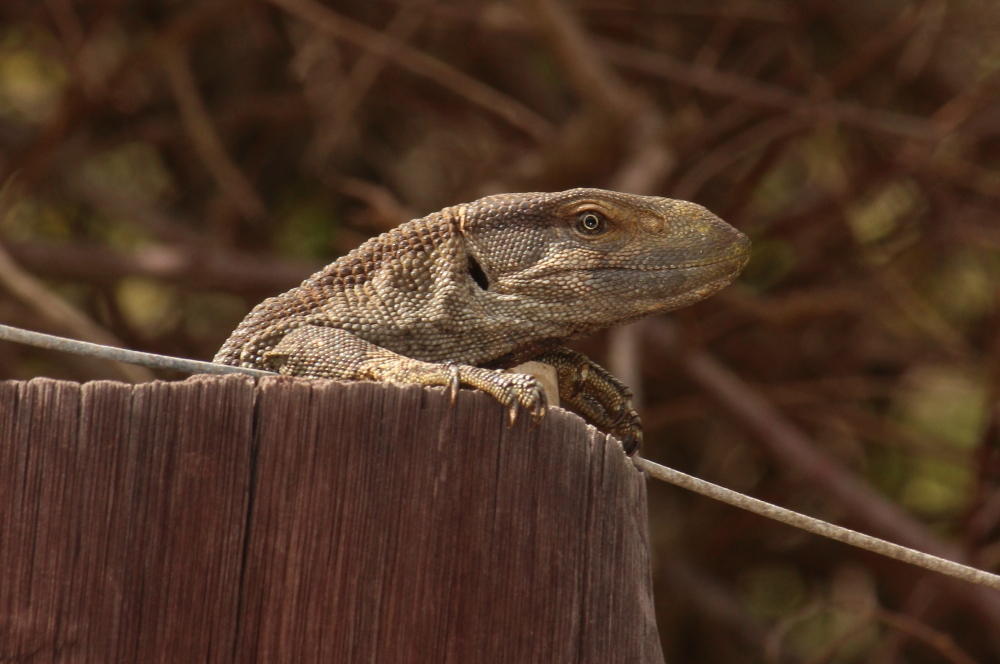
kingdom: Animalia
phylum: Chordata
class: Squamata
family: Varanidae
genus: Varanus
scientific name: Varanus albigularis
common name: White-throated monitor
